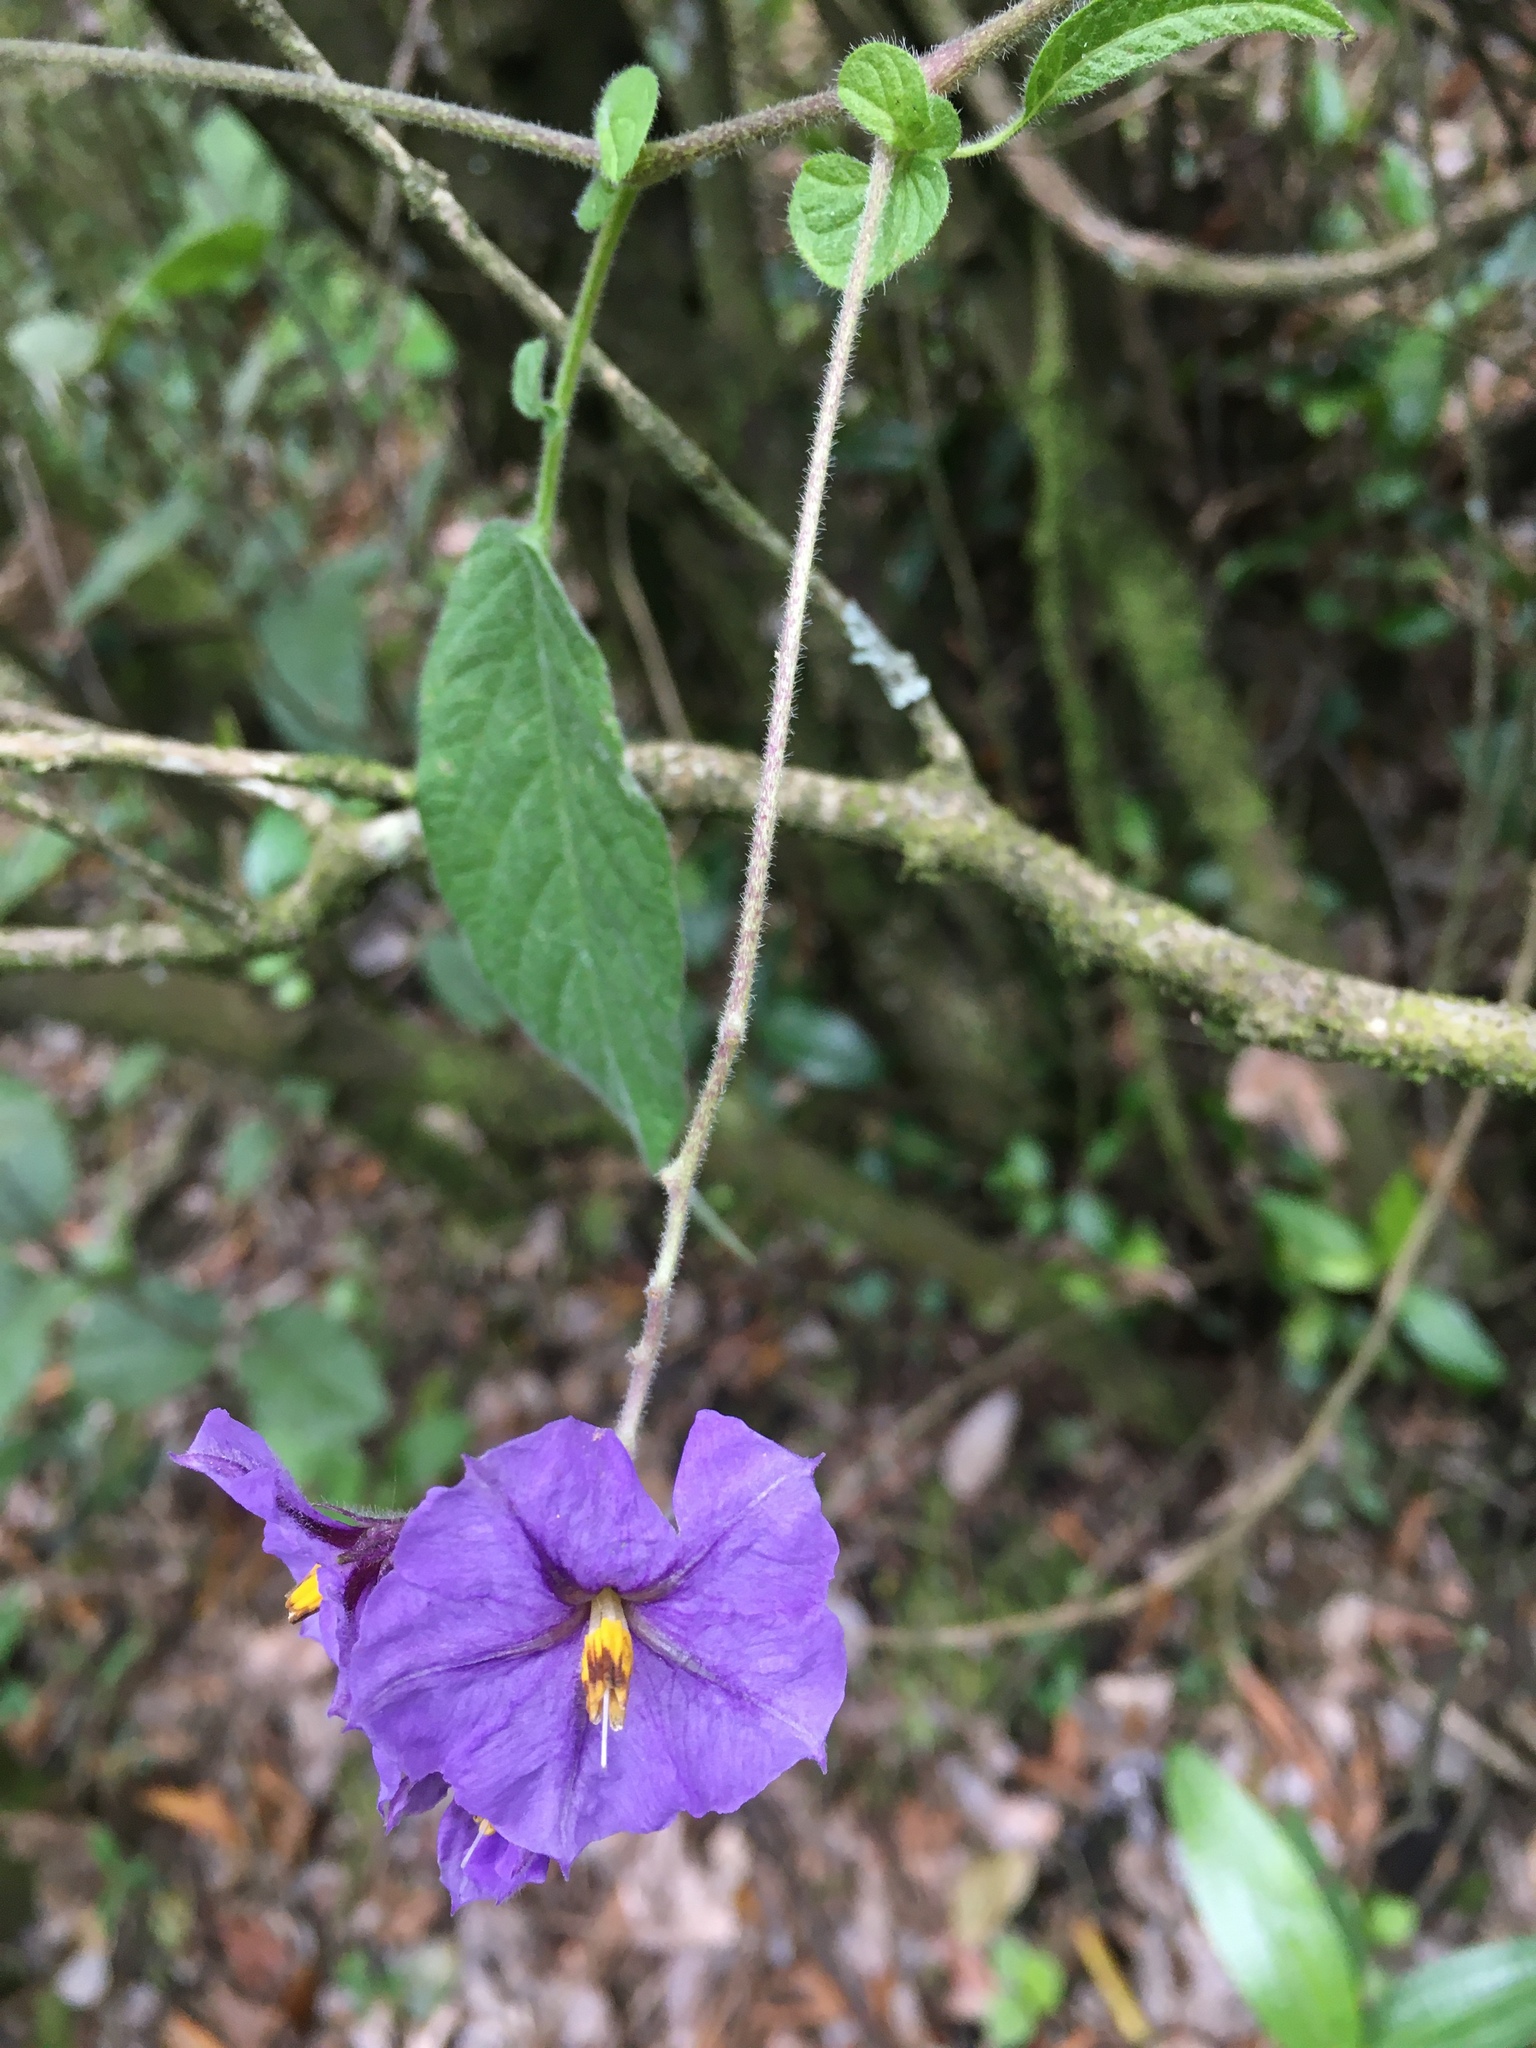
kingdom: Plantae
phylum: Tracheophyta
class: Magnoliopsida
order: Solanales
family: Solanaceae
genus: Lycianthes
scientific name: Lycianthes lycioides
